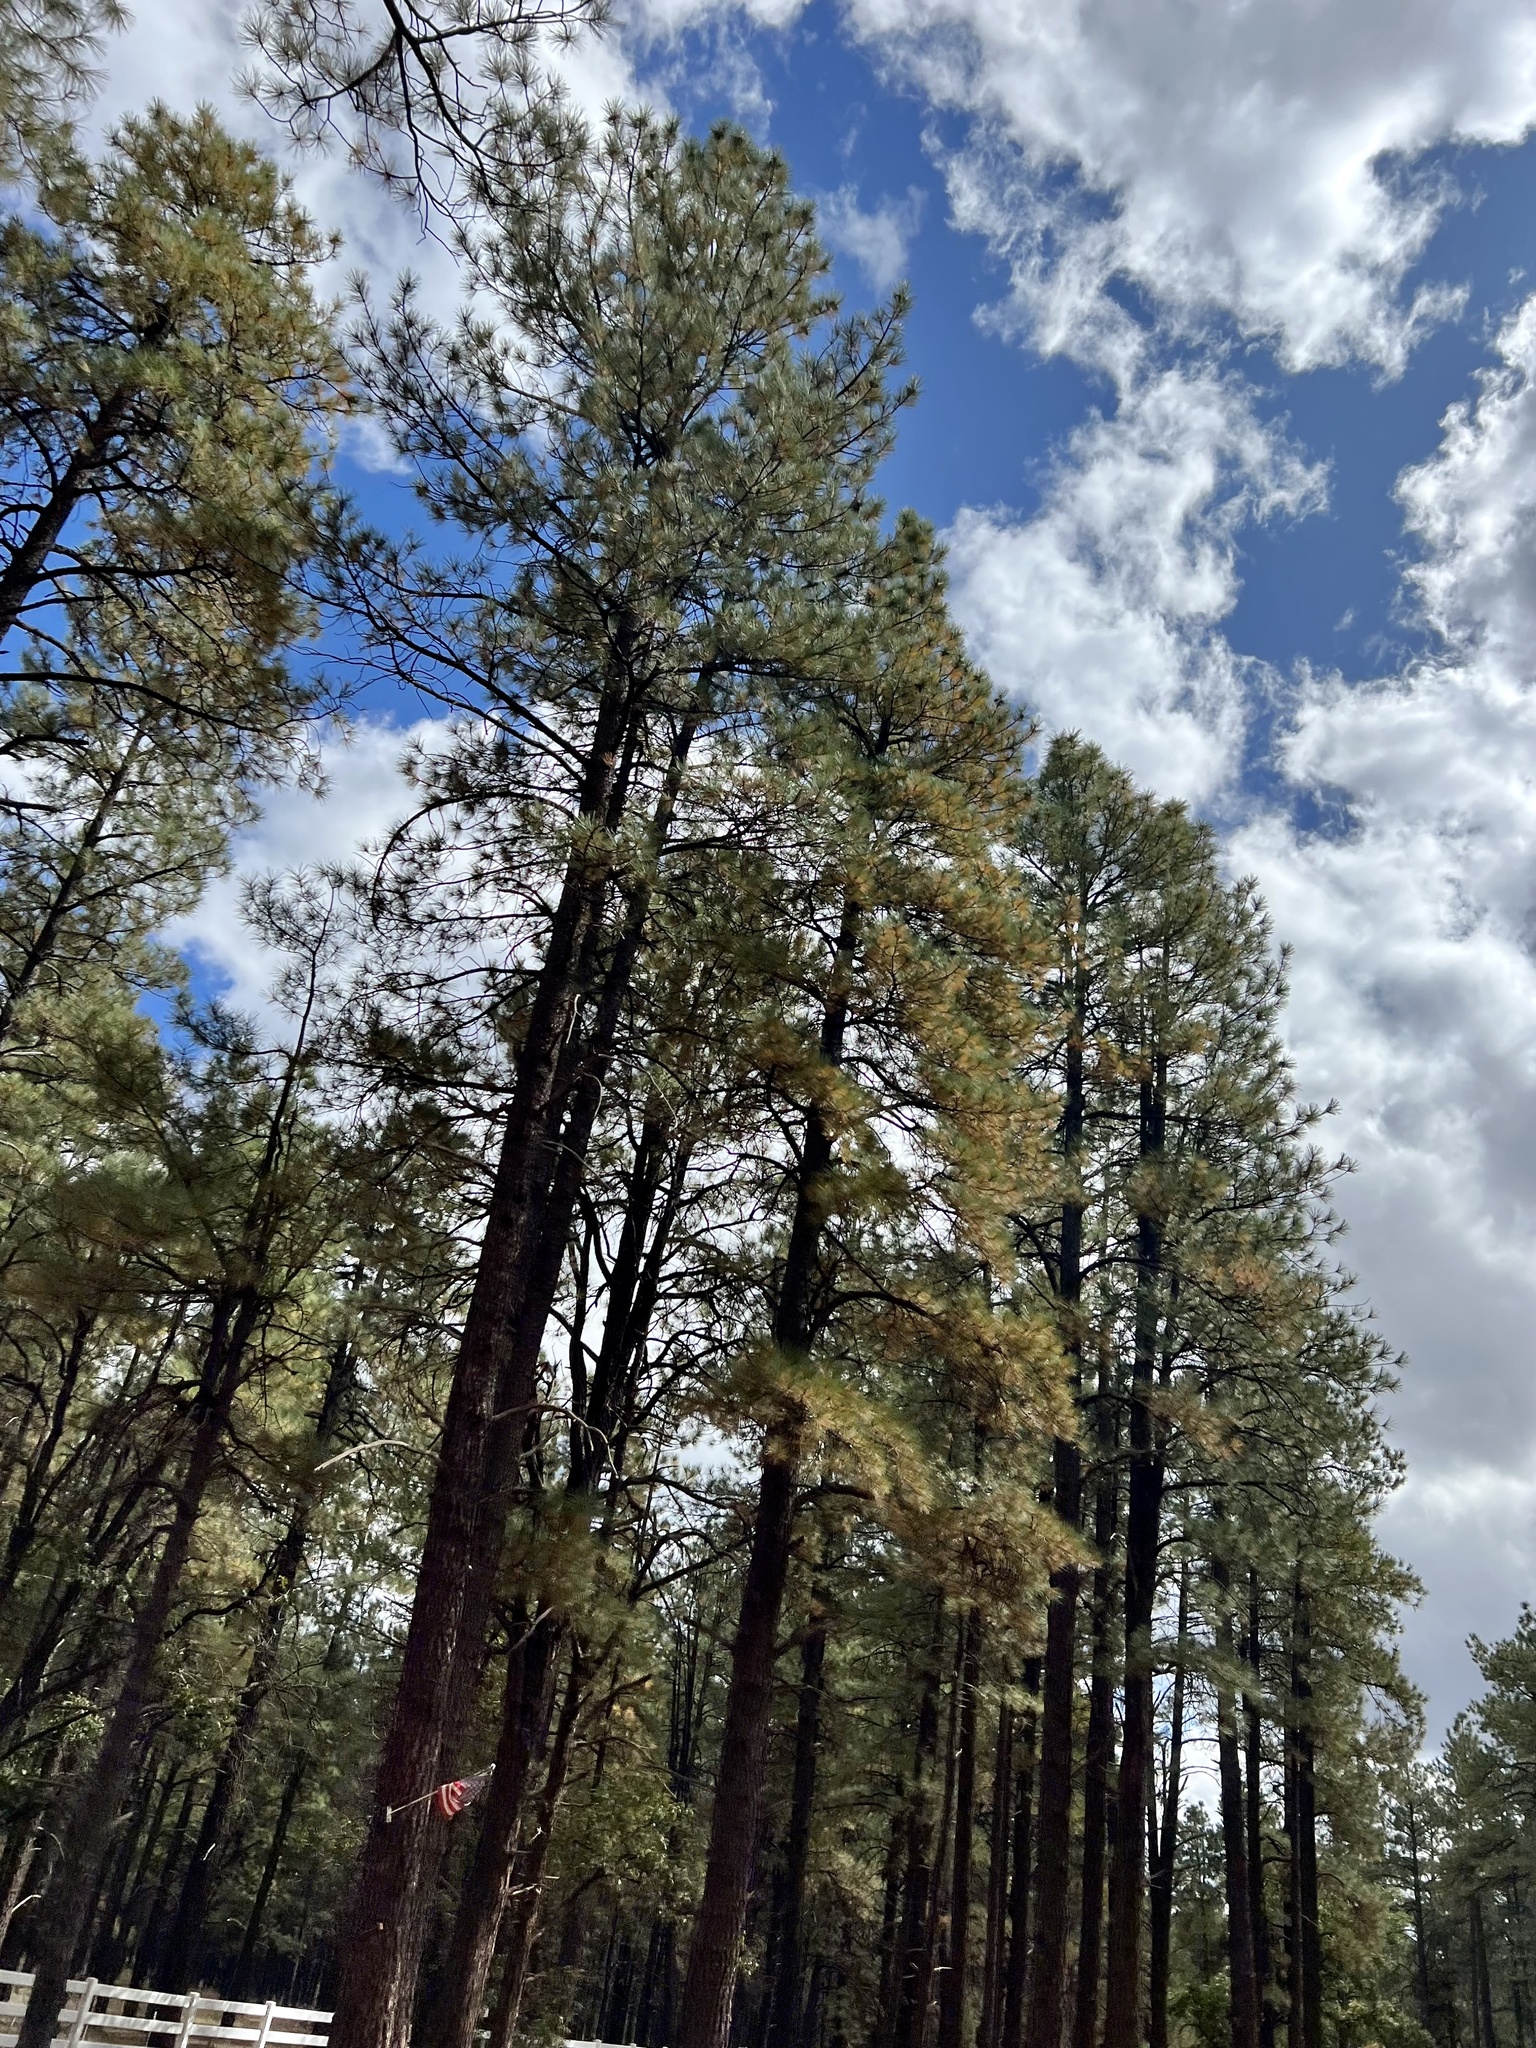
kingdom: Plantae
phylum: Tracheophyta
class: Pinopsida
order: Pinales
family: Pinaceae
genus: Pinus
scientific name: Pinus ponderosa
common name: Western yellow-pine
